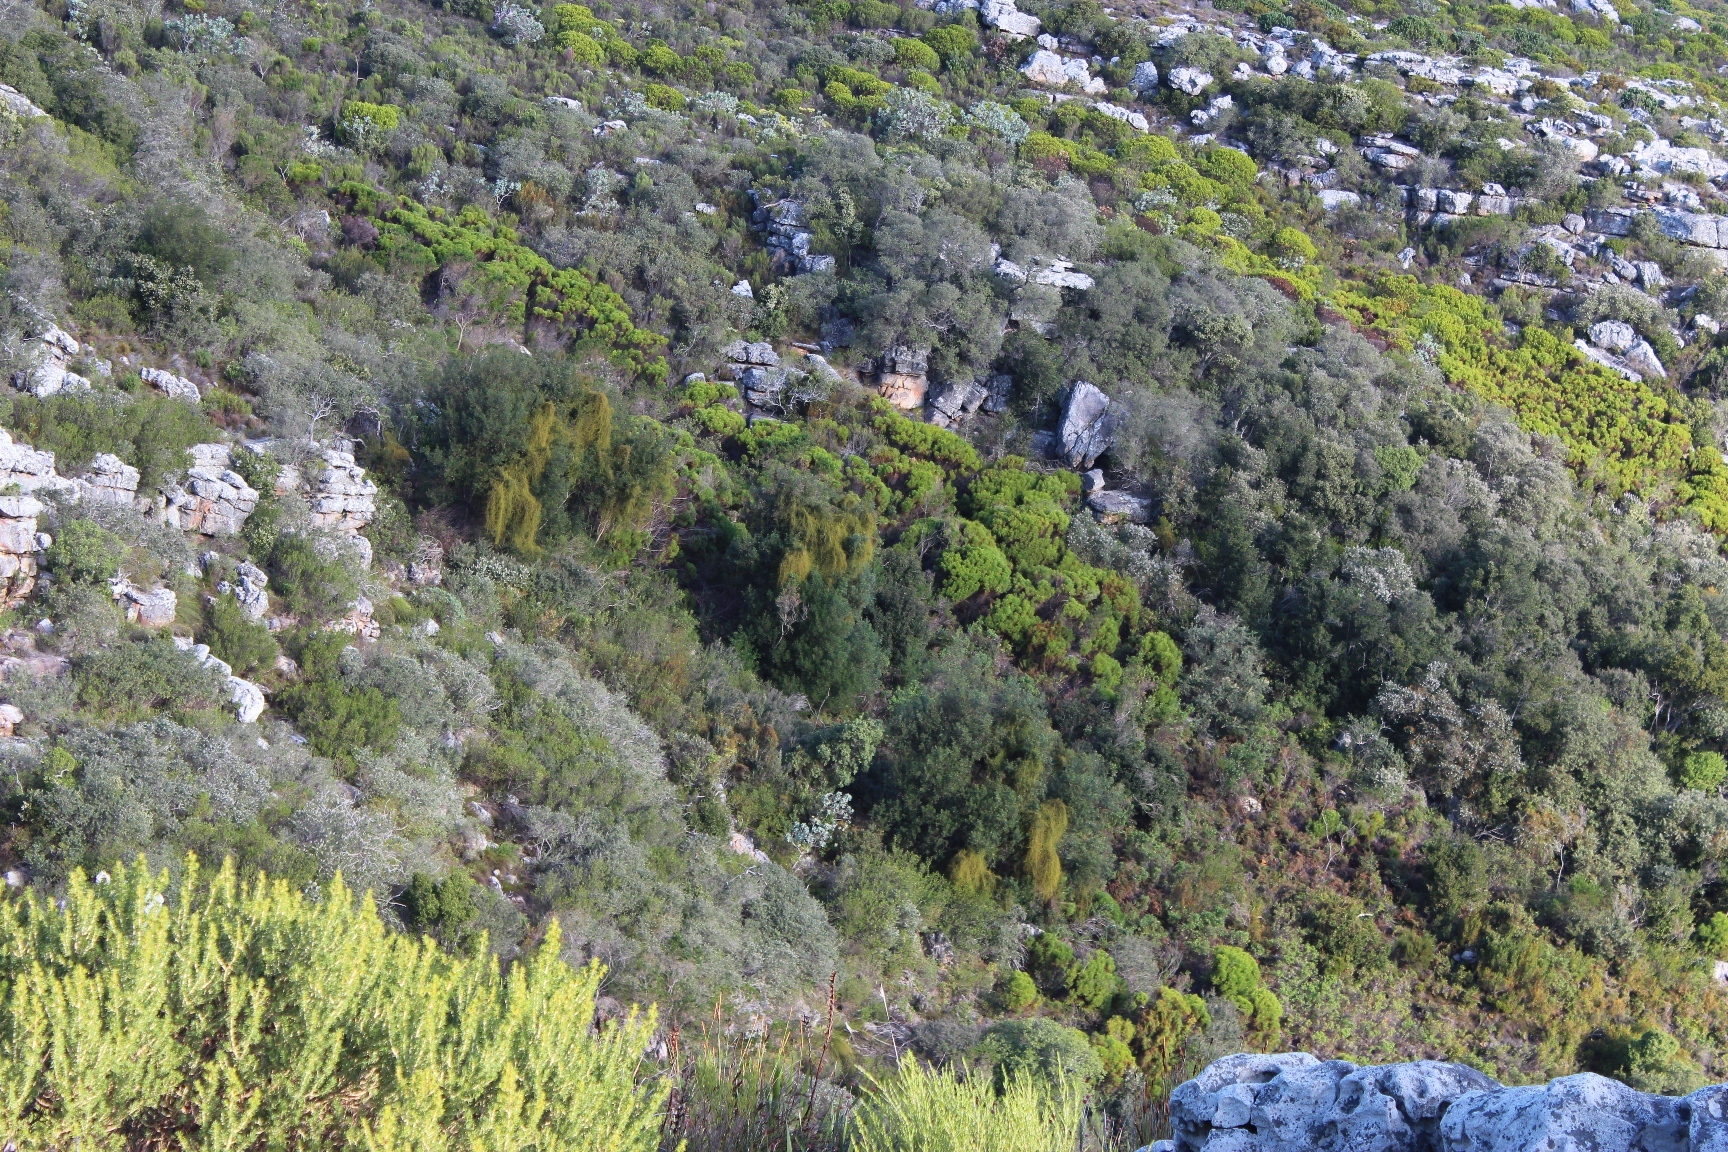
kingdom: Plantae
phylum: Tracheophyta
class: Magnoliopsida
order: Laurales
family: Lauraceae
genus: Cassytha
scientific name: Cassytha ciliolata
